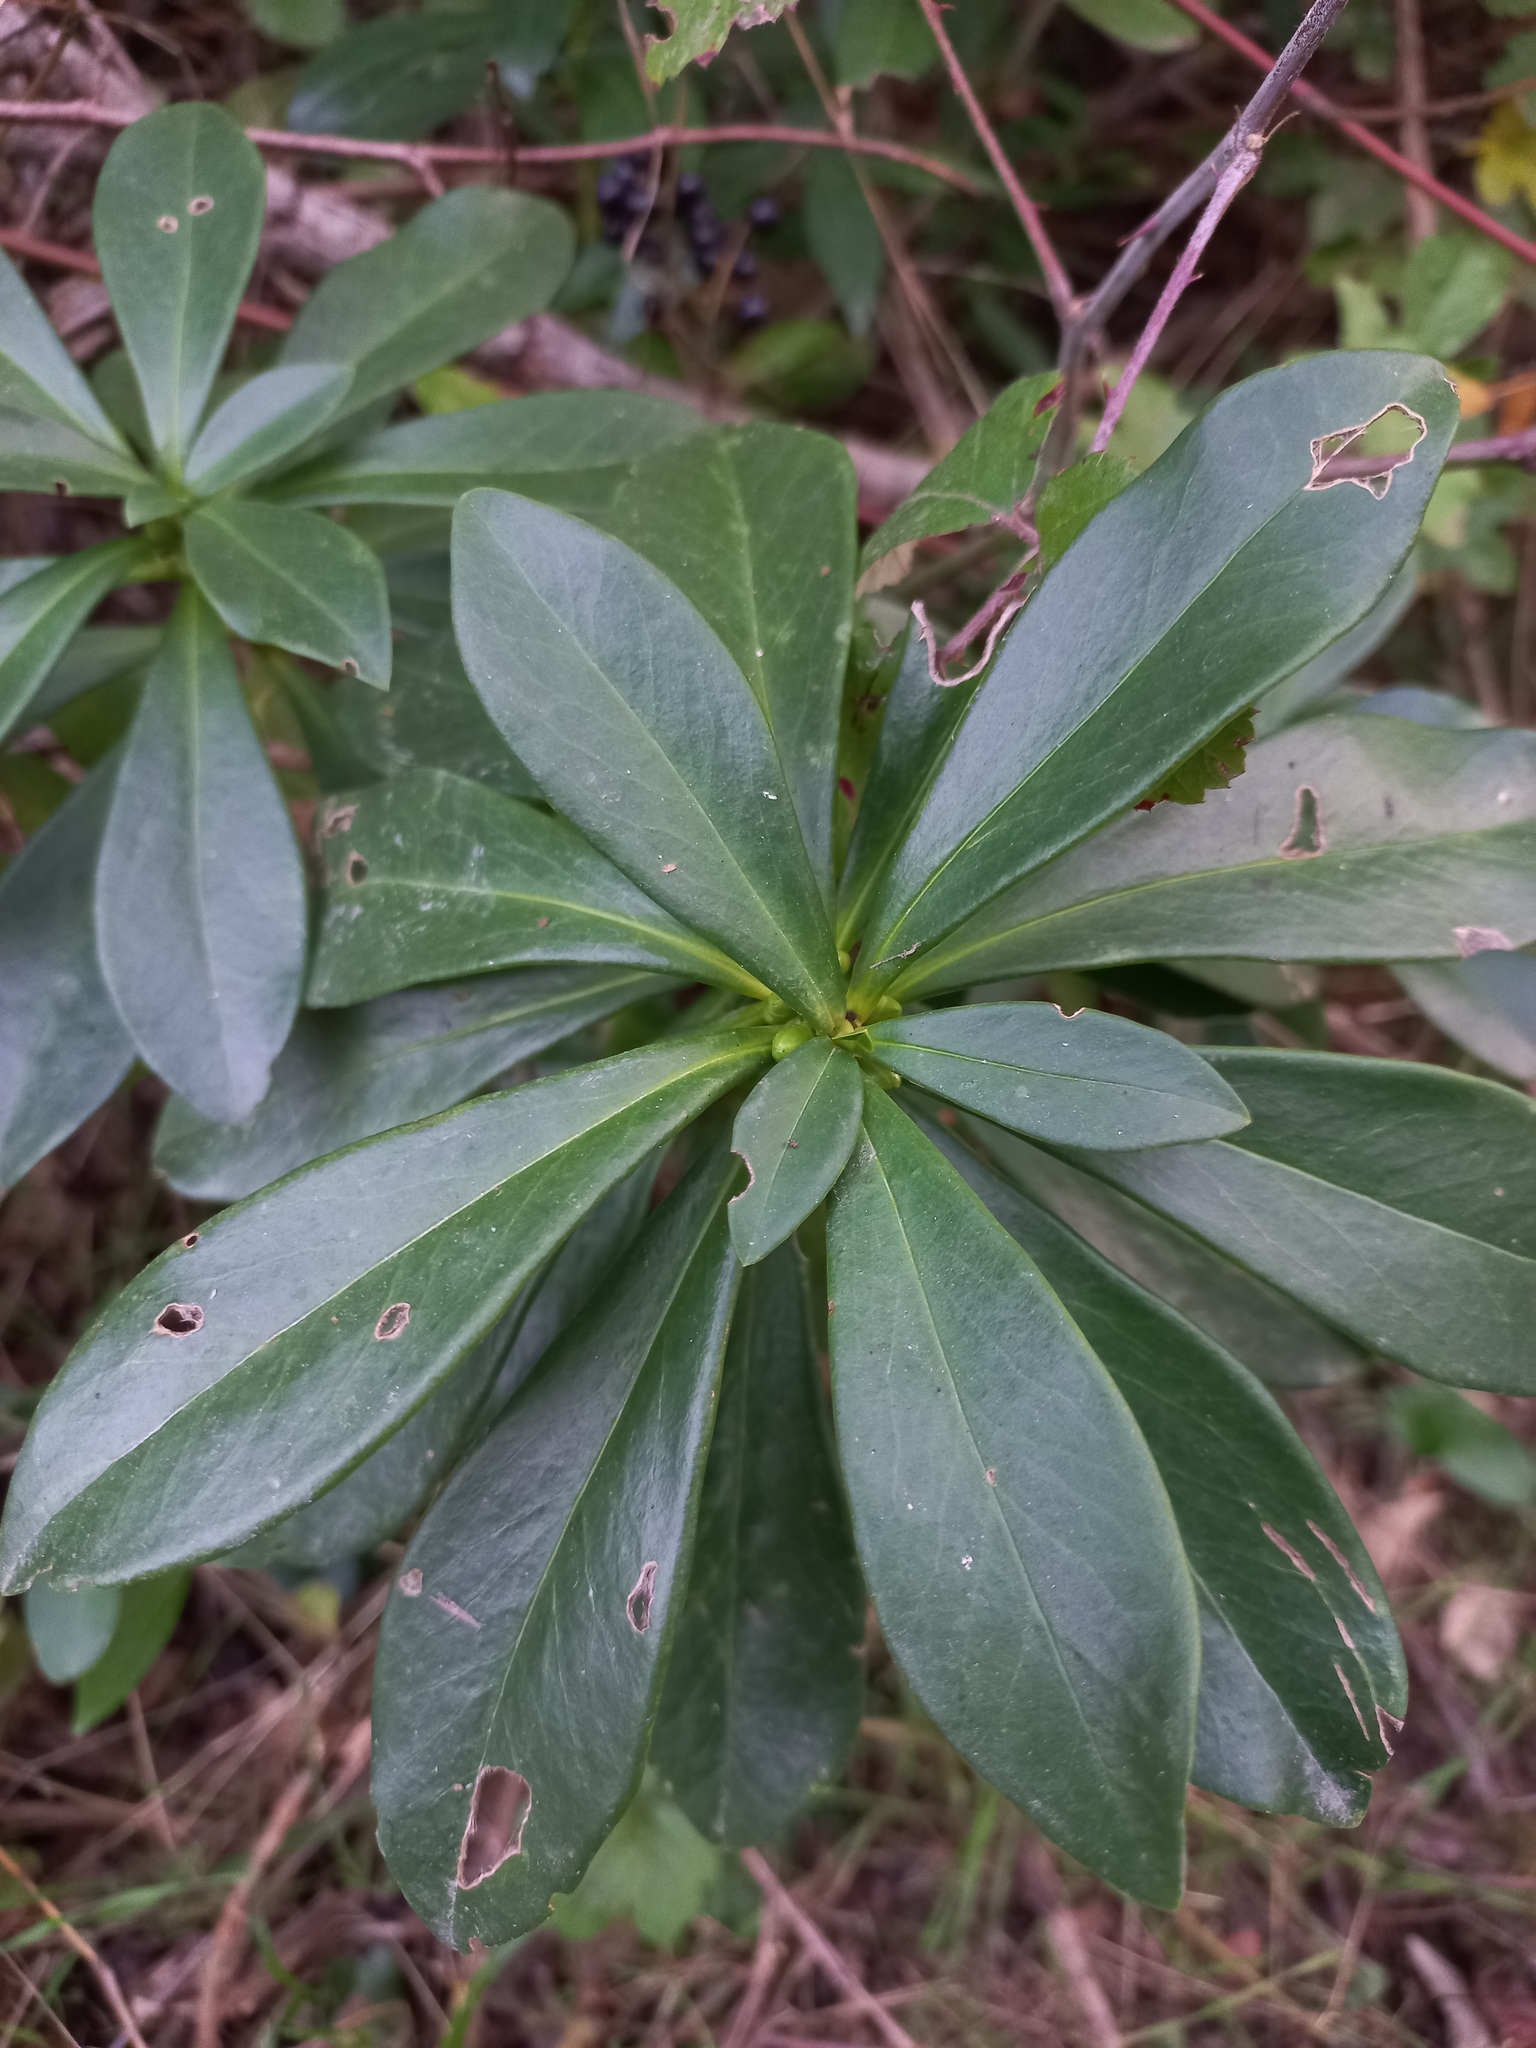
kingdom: Plantae
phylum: Tracheophyta
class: Magnoliopsida
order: Malvales
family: Thymelaeaceae
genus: Daphne
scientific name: Daphne laureola
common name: Spurge-laurel
